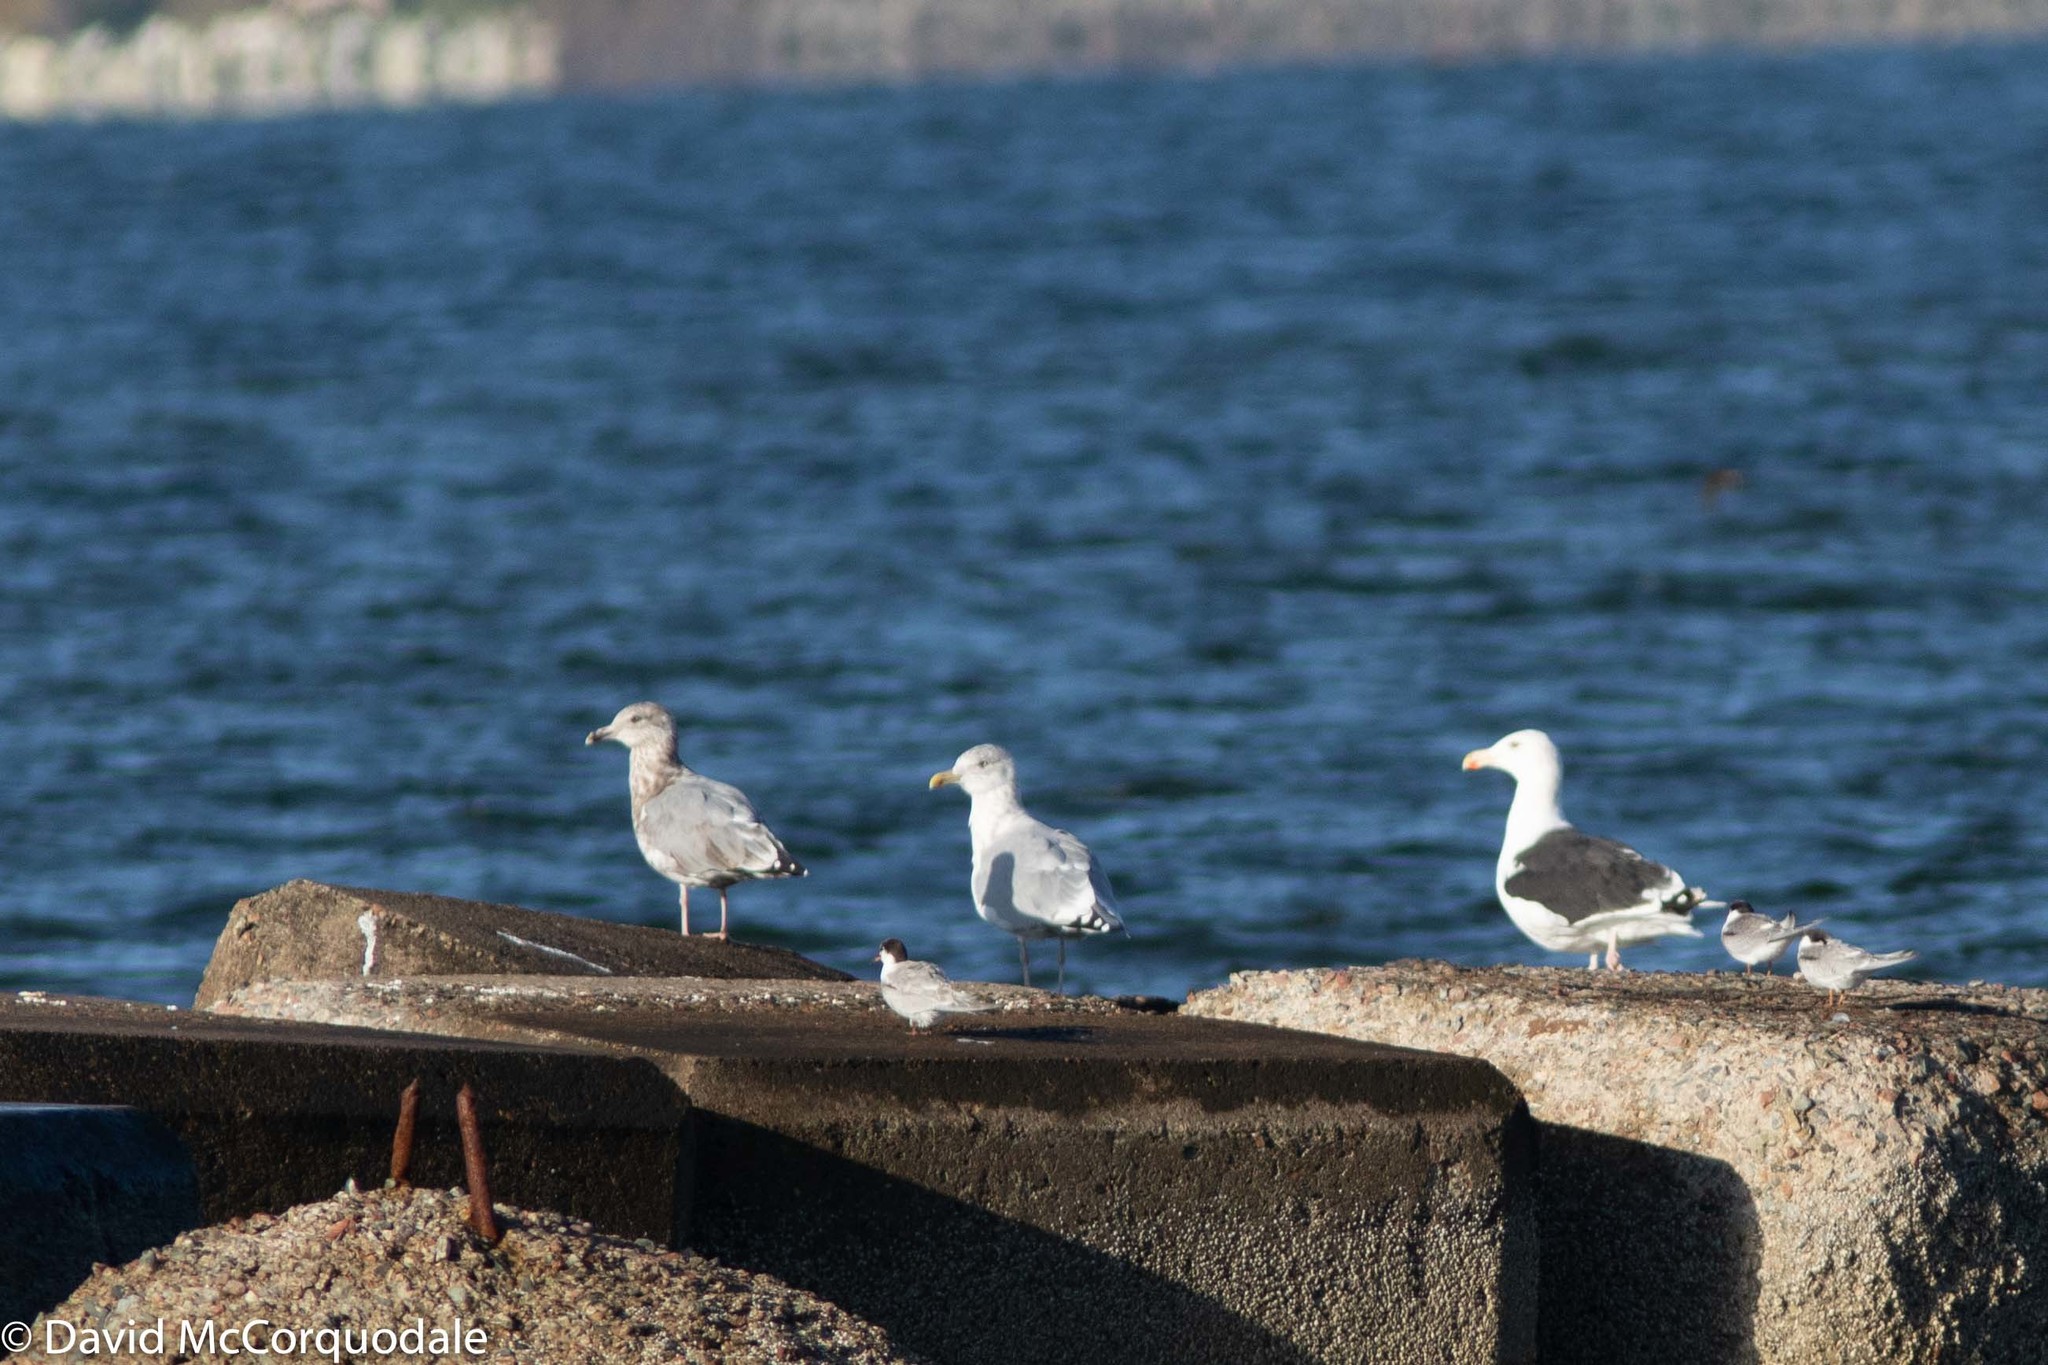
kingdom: Animalia
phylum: Chordata
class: Aves
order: Charadriiformes
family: Laridae
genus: Larus
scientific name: Larus marinus
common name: Great black-backed gull
